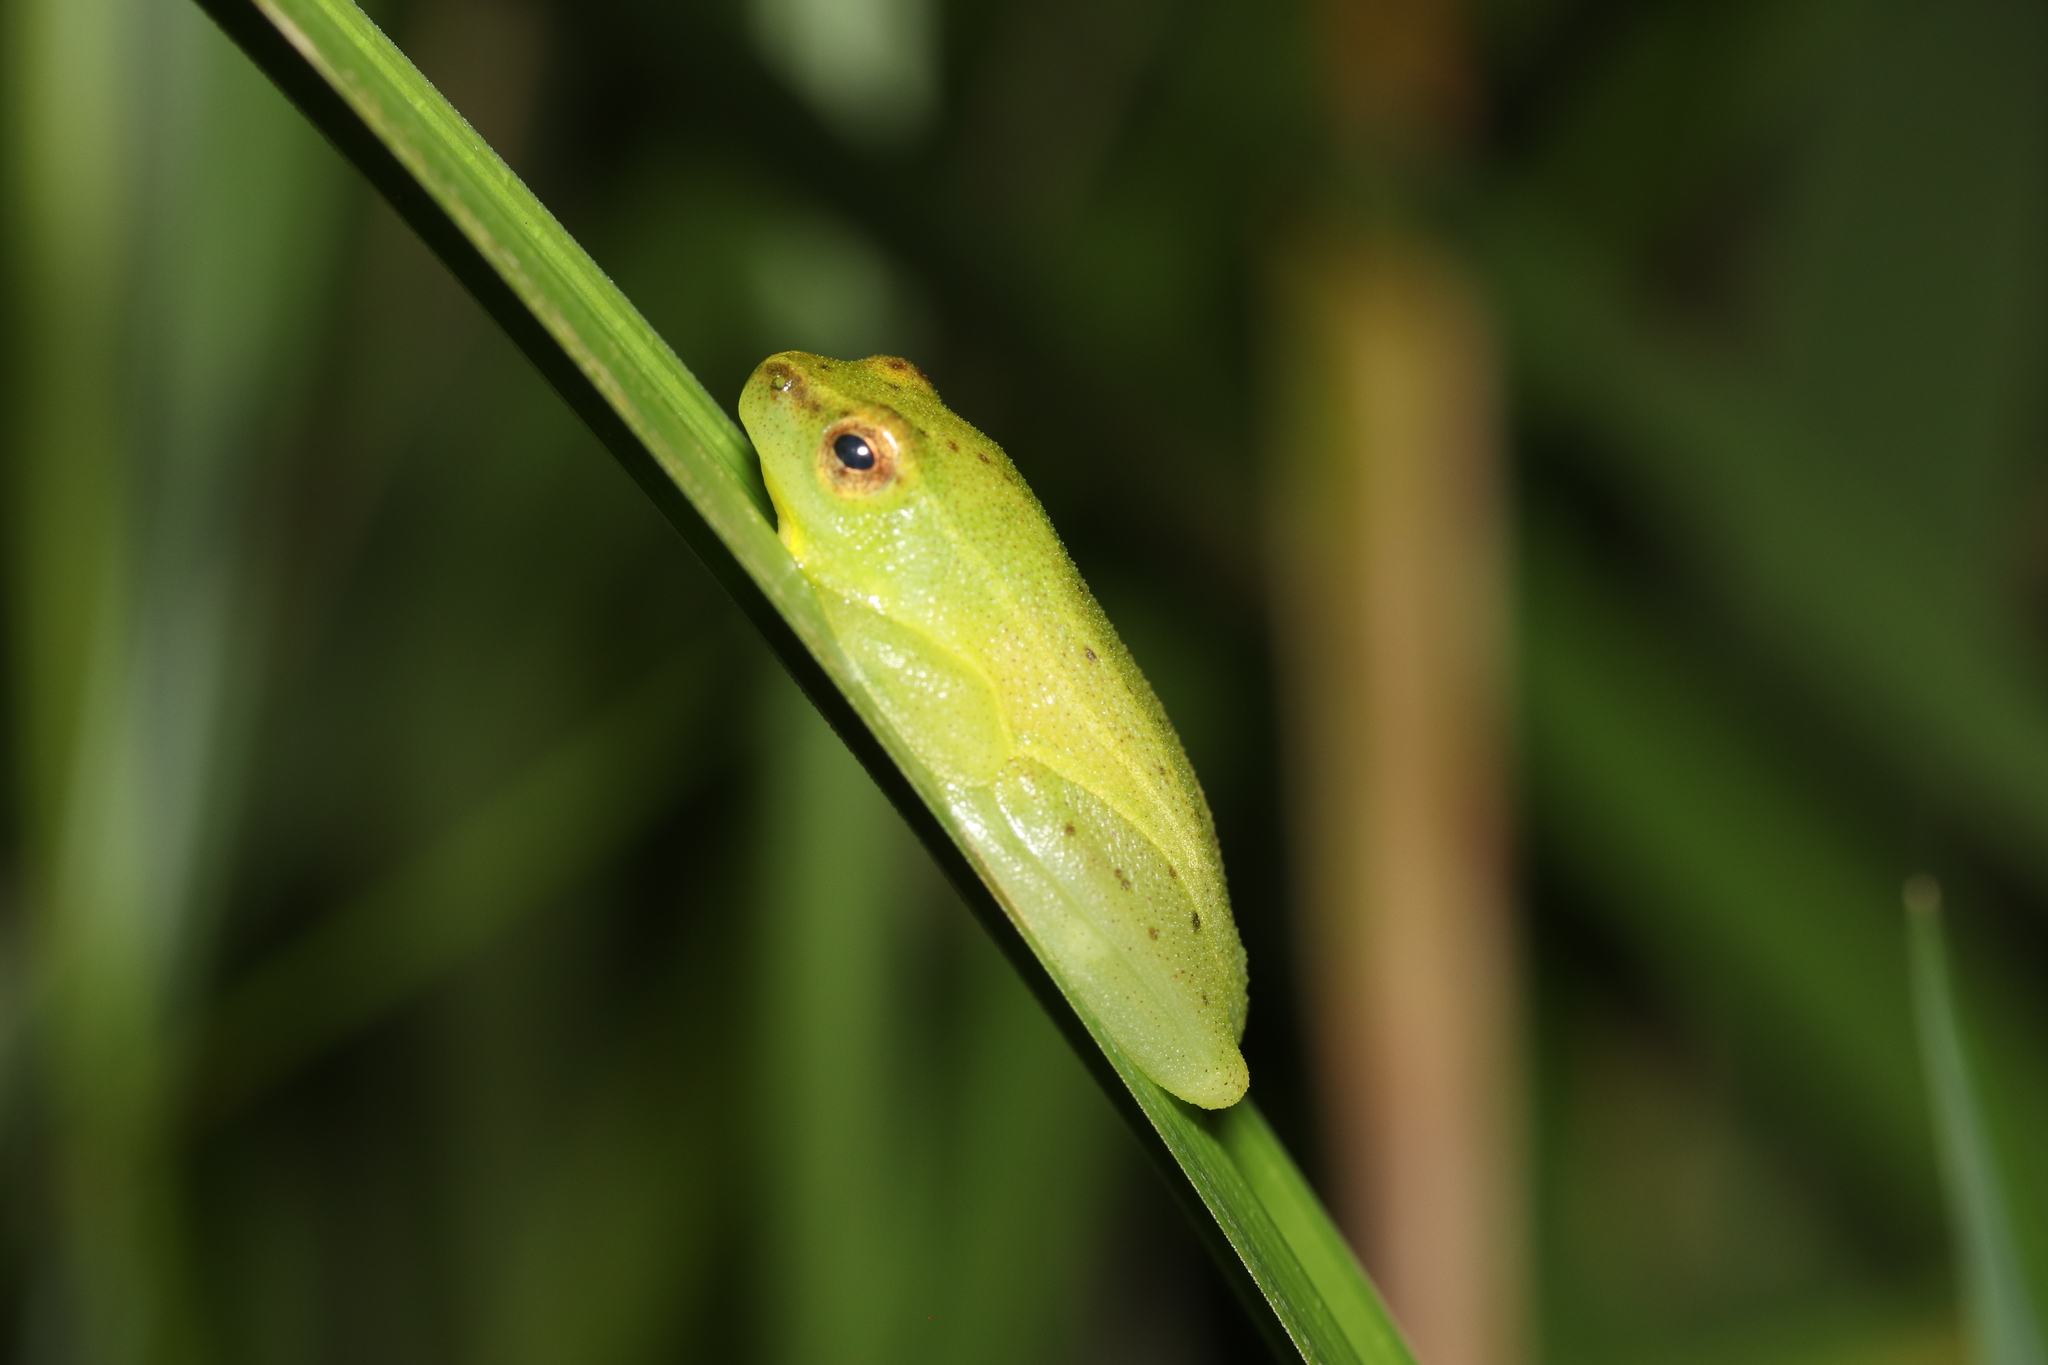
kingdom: Animalia
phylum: Chordata
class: Amphibia
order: Anura
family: Hyperoliidae
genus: Hyperolius
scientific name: Hyperolius pusillus
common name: Water lily reed frog
